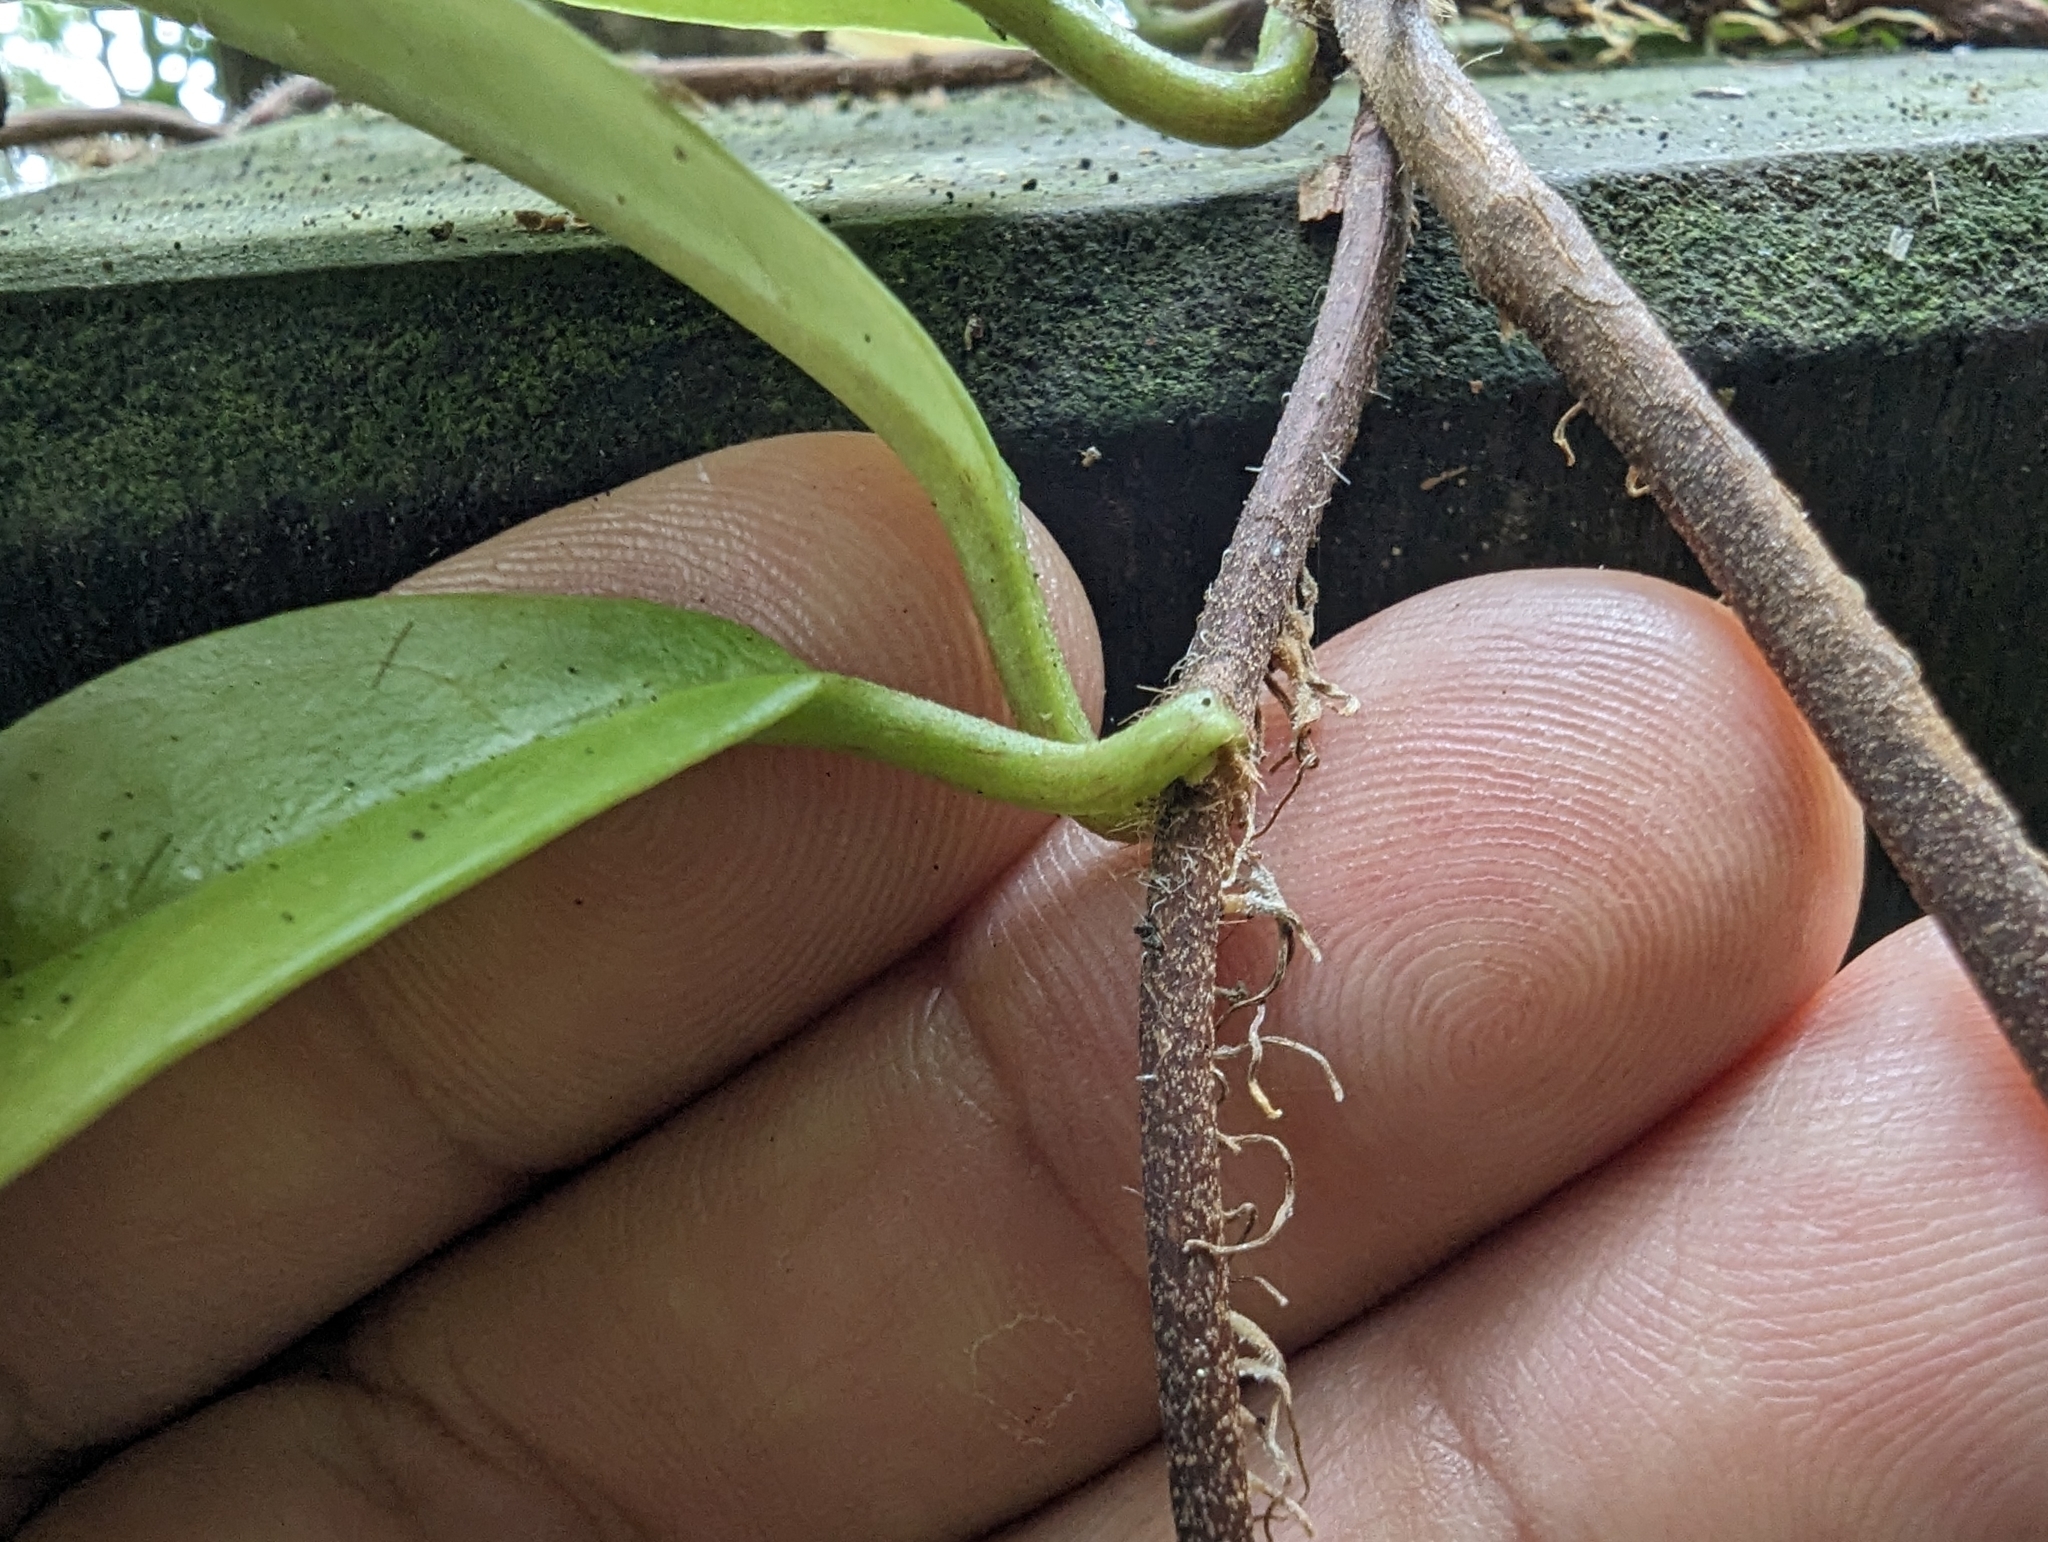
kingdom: Plantae
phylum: Tracheophyta
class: Magnoliopsida
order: Cornales
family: Hydrangeaceae
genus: Hydrangea
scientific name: Hydrangea viburnoides
